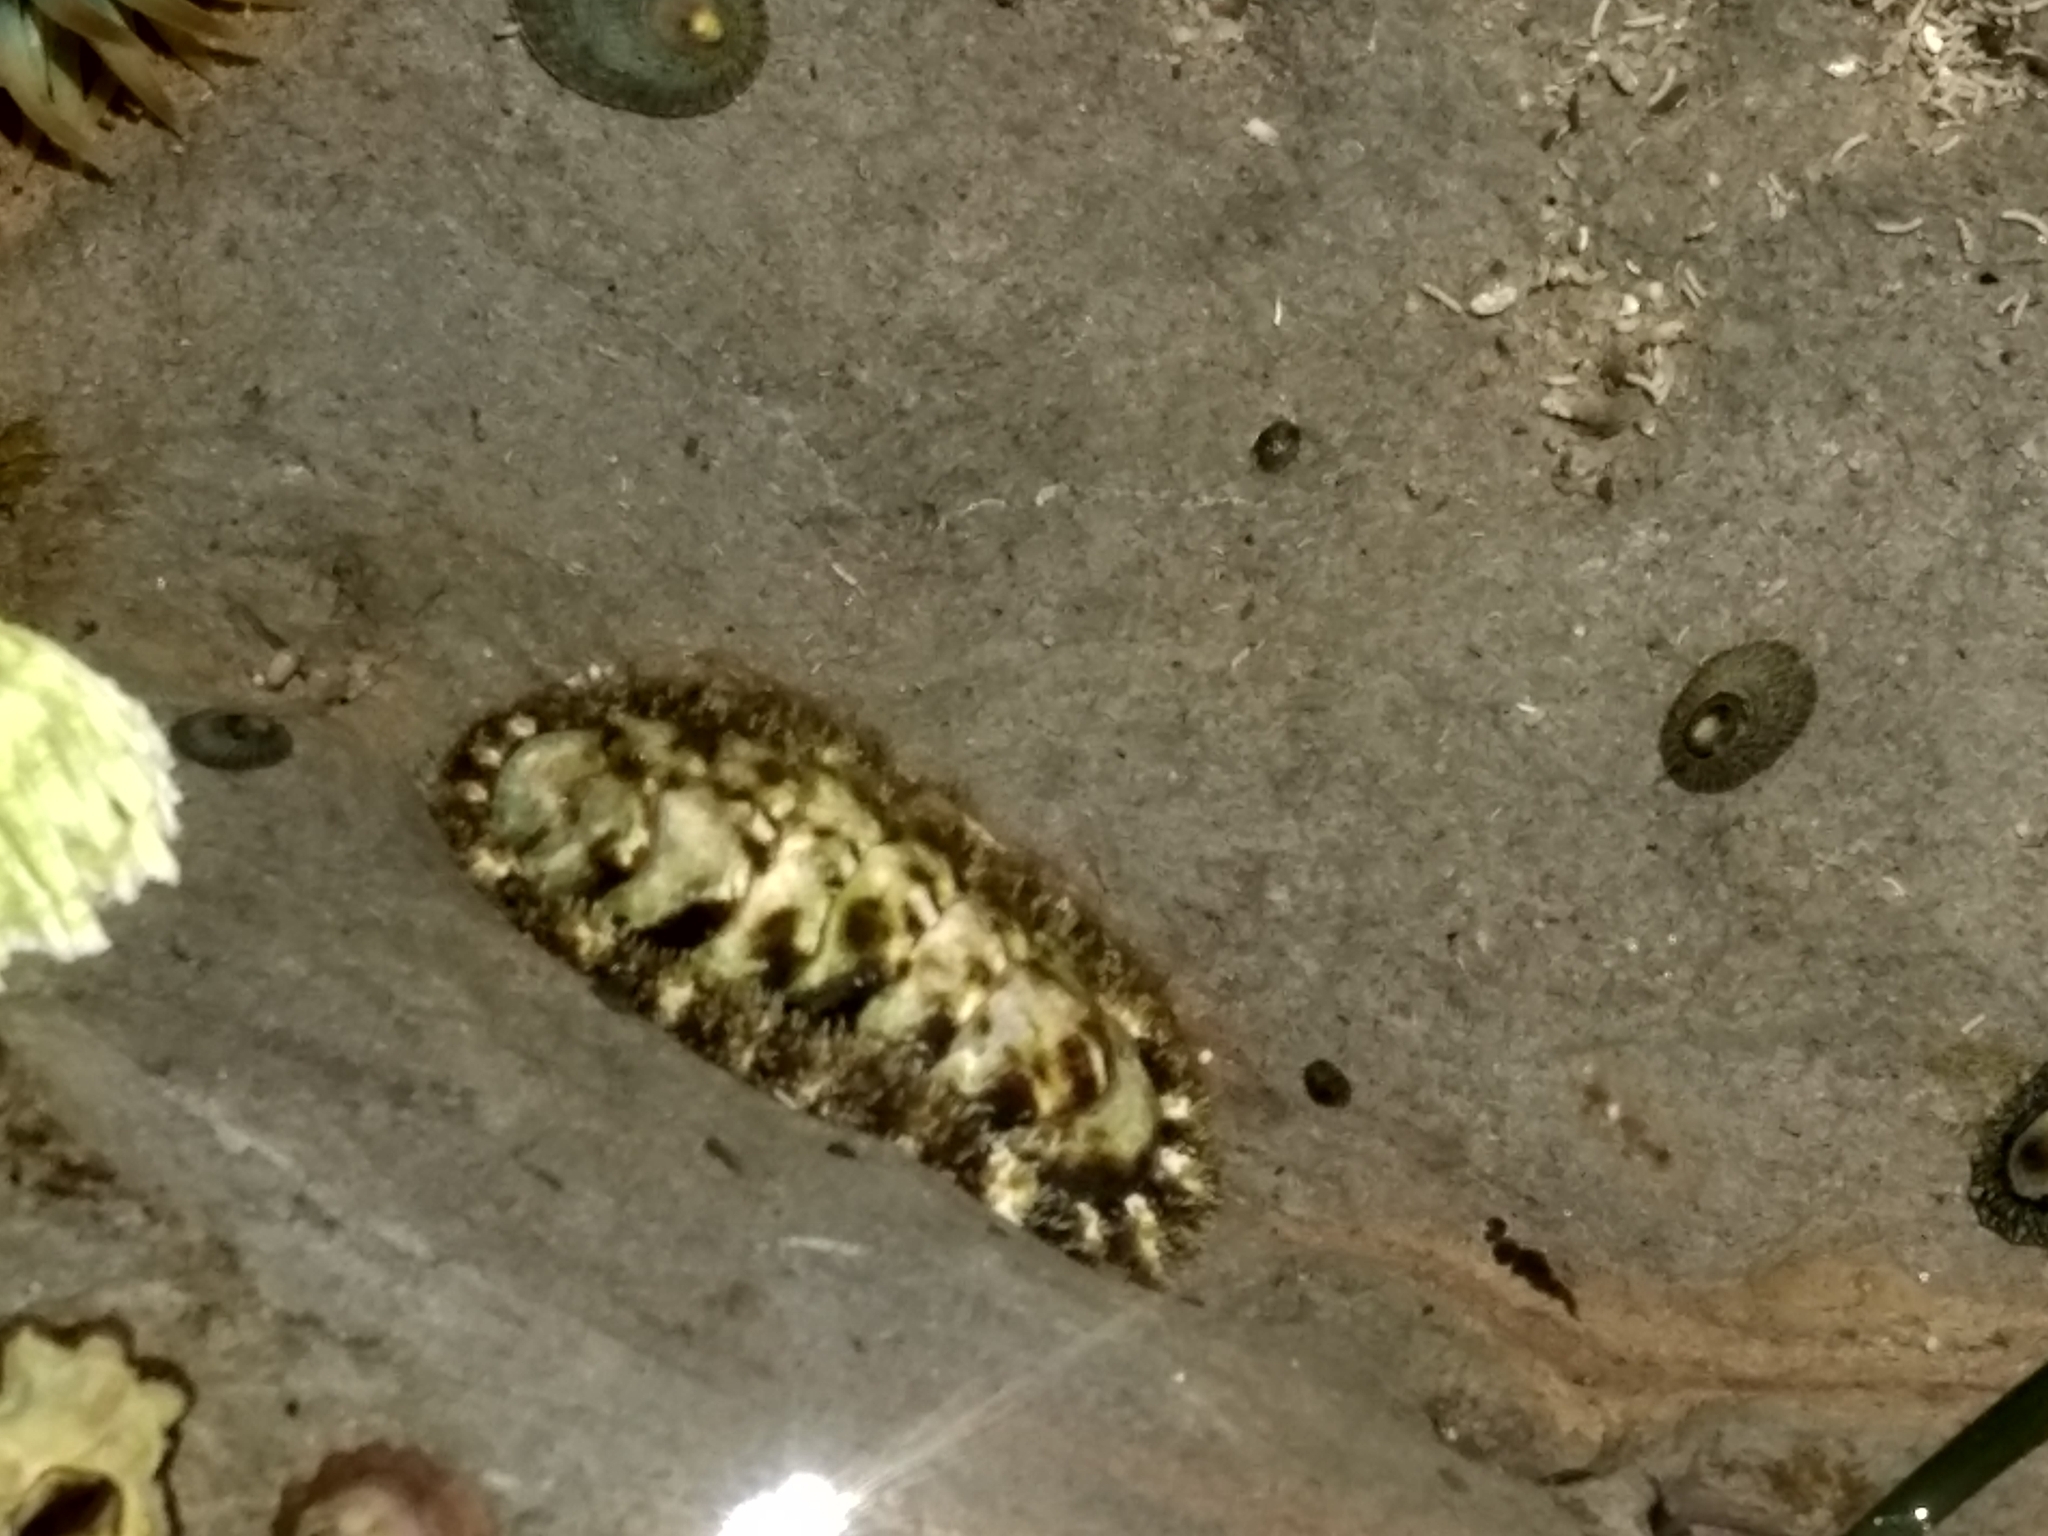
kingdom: Animalia
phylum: Mollusca
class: Polyplacophora
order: Chitonida
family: Tonicellidae
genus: Nuttallina
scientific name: Nuttallina californica
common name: California nuttall chiton
